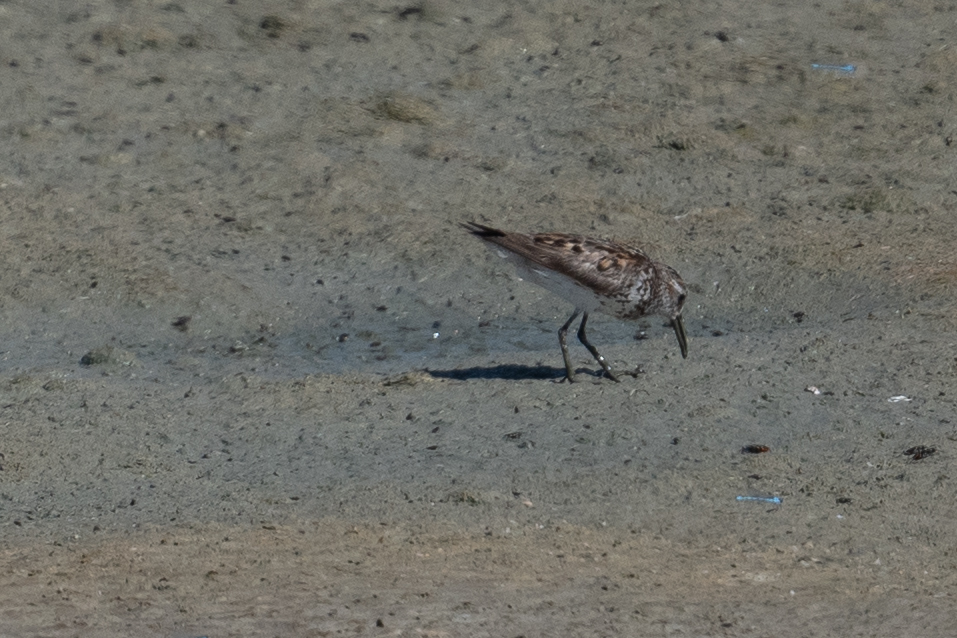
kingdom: Animalia
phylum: Chordata
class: Aves
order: Charadriiformes
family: Scolopacidae
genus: Calidris
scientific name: Calidris mauri
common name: Western sandpiper
